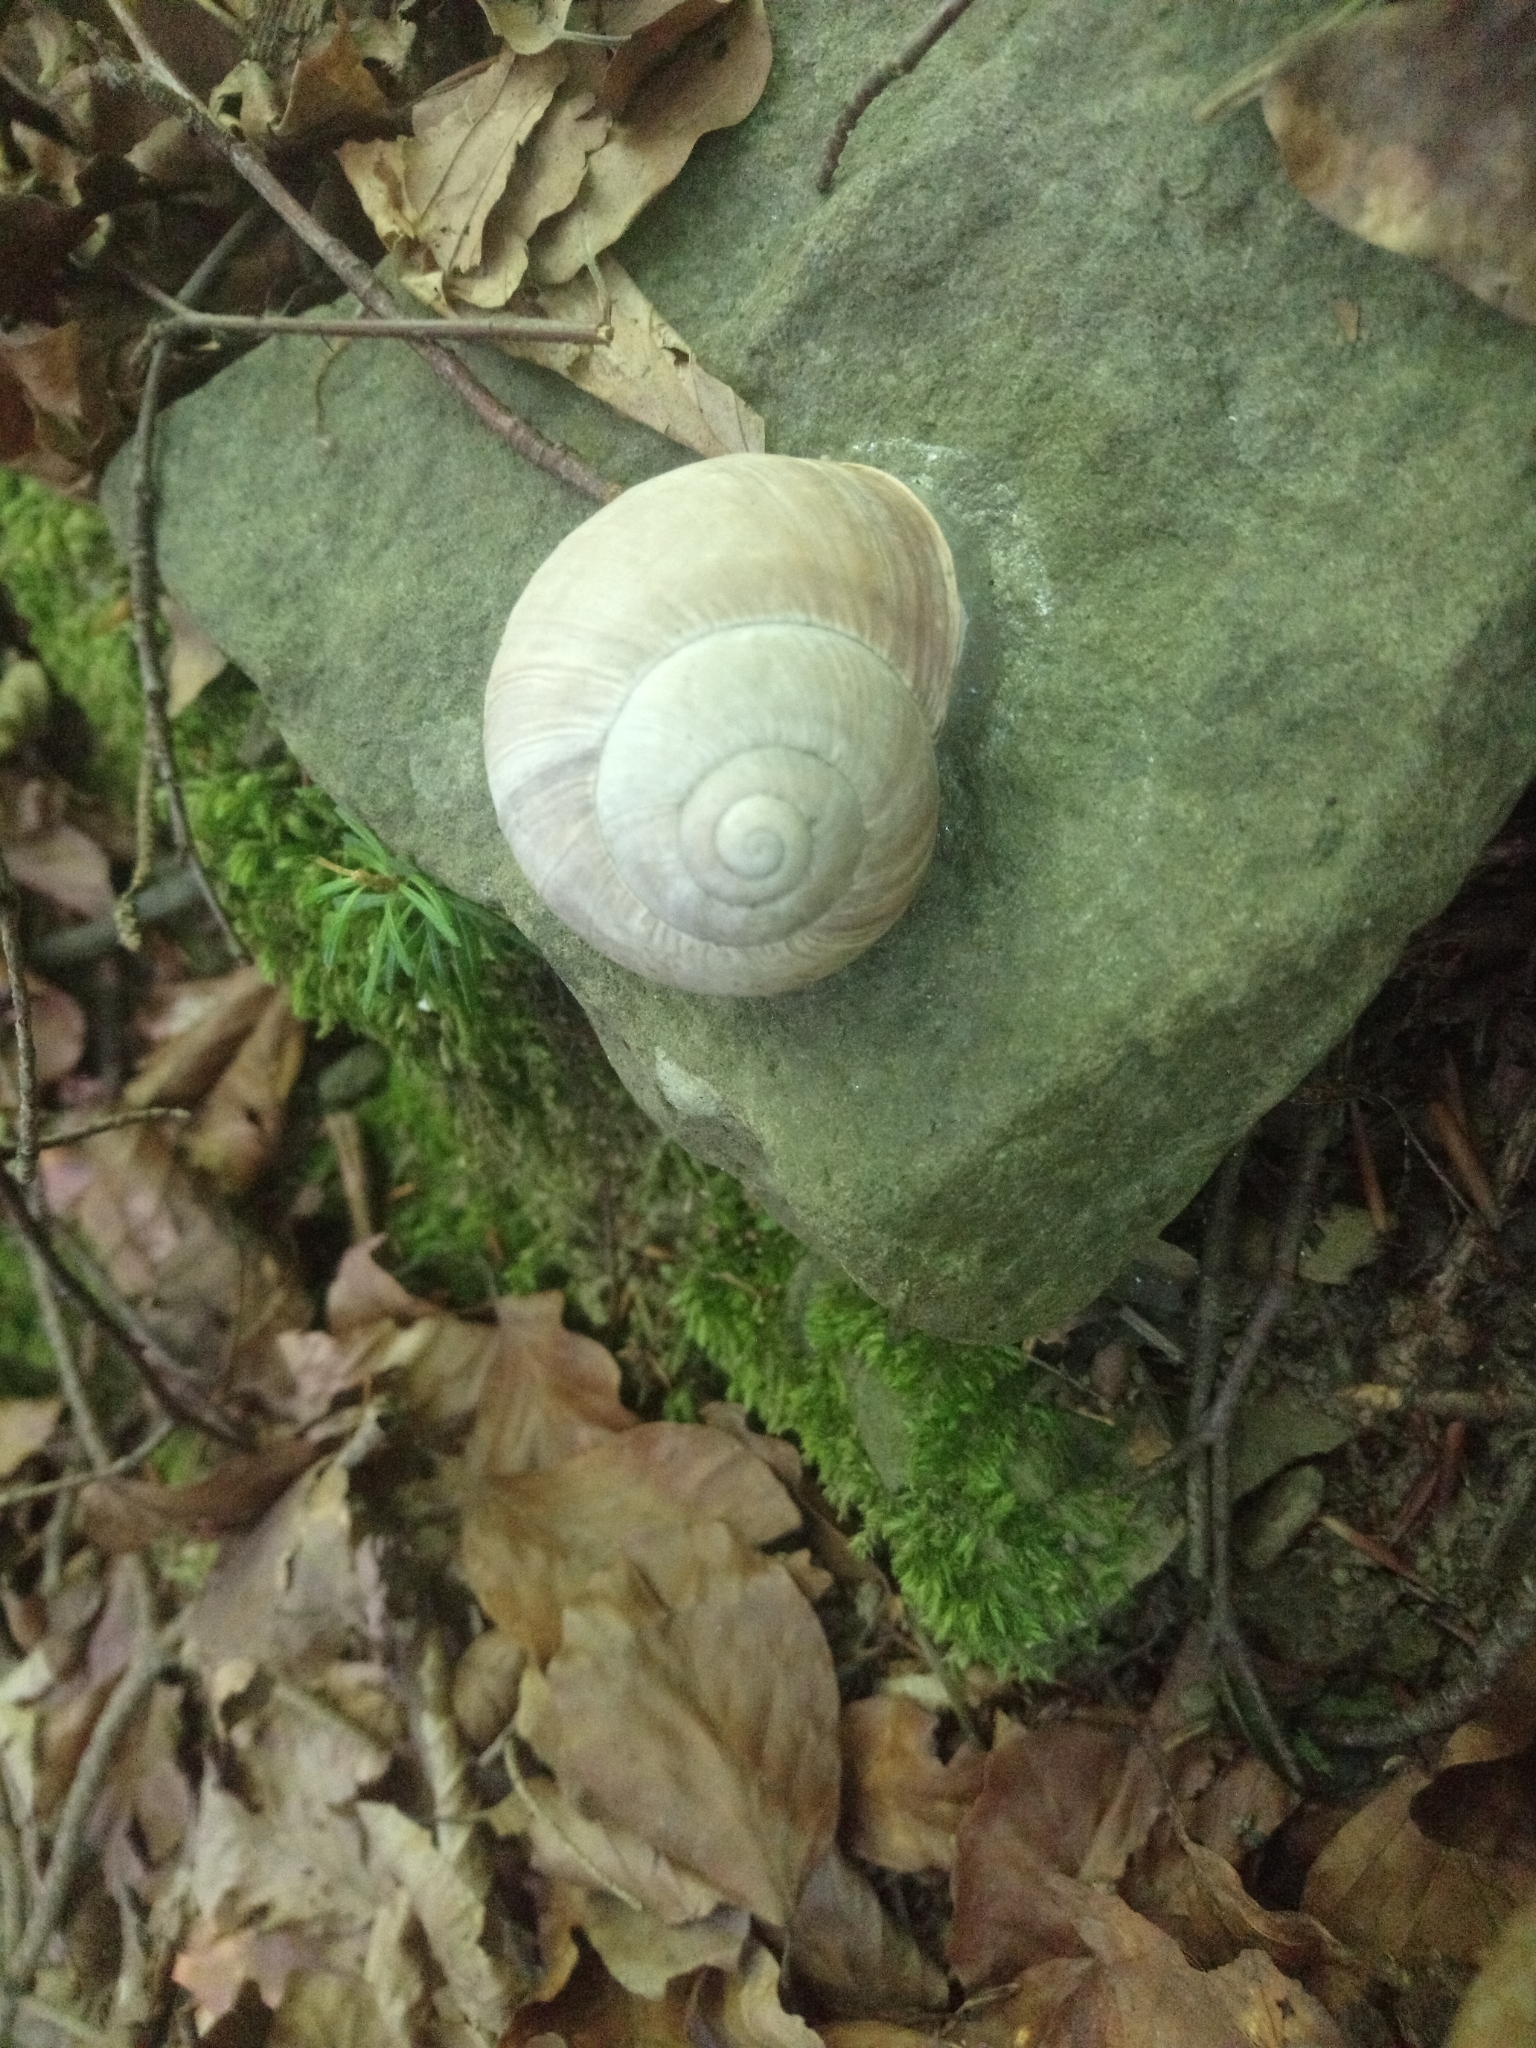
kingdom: Animalia
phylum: Mollusca
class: Gastropoda
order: Stylommatophora
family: Helicidae
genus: Helix
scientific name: Helix pomatia
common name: Roman snail
